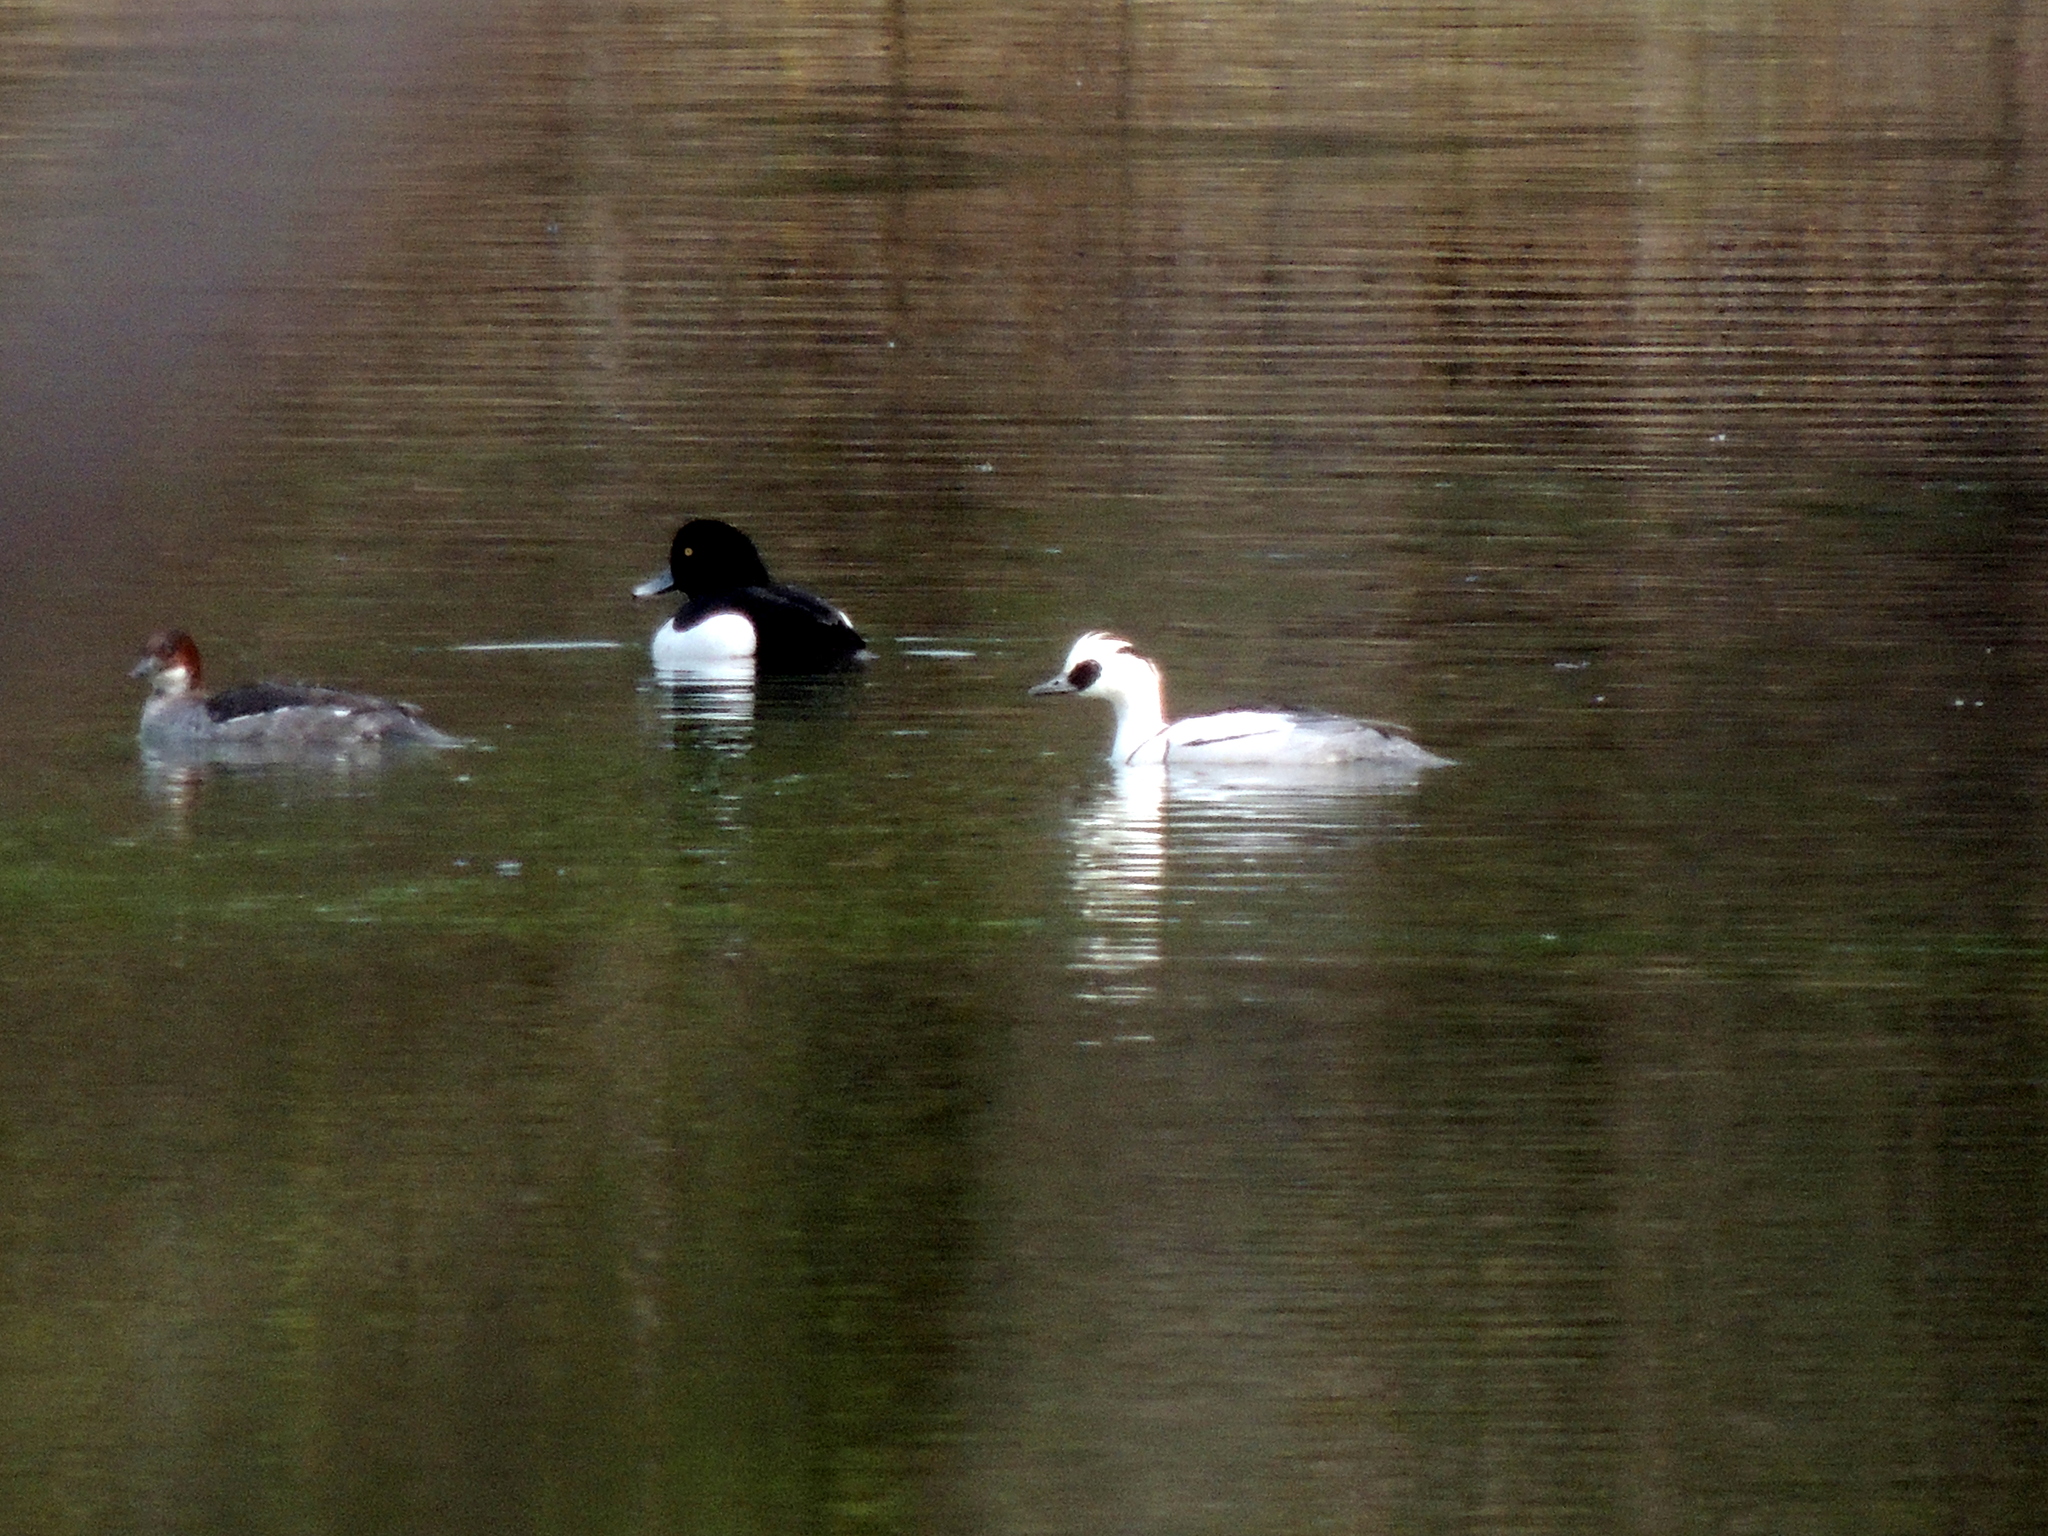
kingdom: Animalia
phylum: Chordata
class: Aves
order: Anseriformes
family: Anatidae
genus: Mergellus
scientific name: Mergellus albellus
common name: Smew
